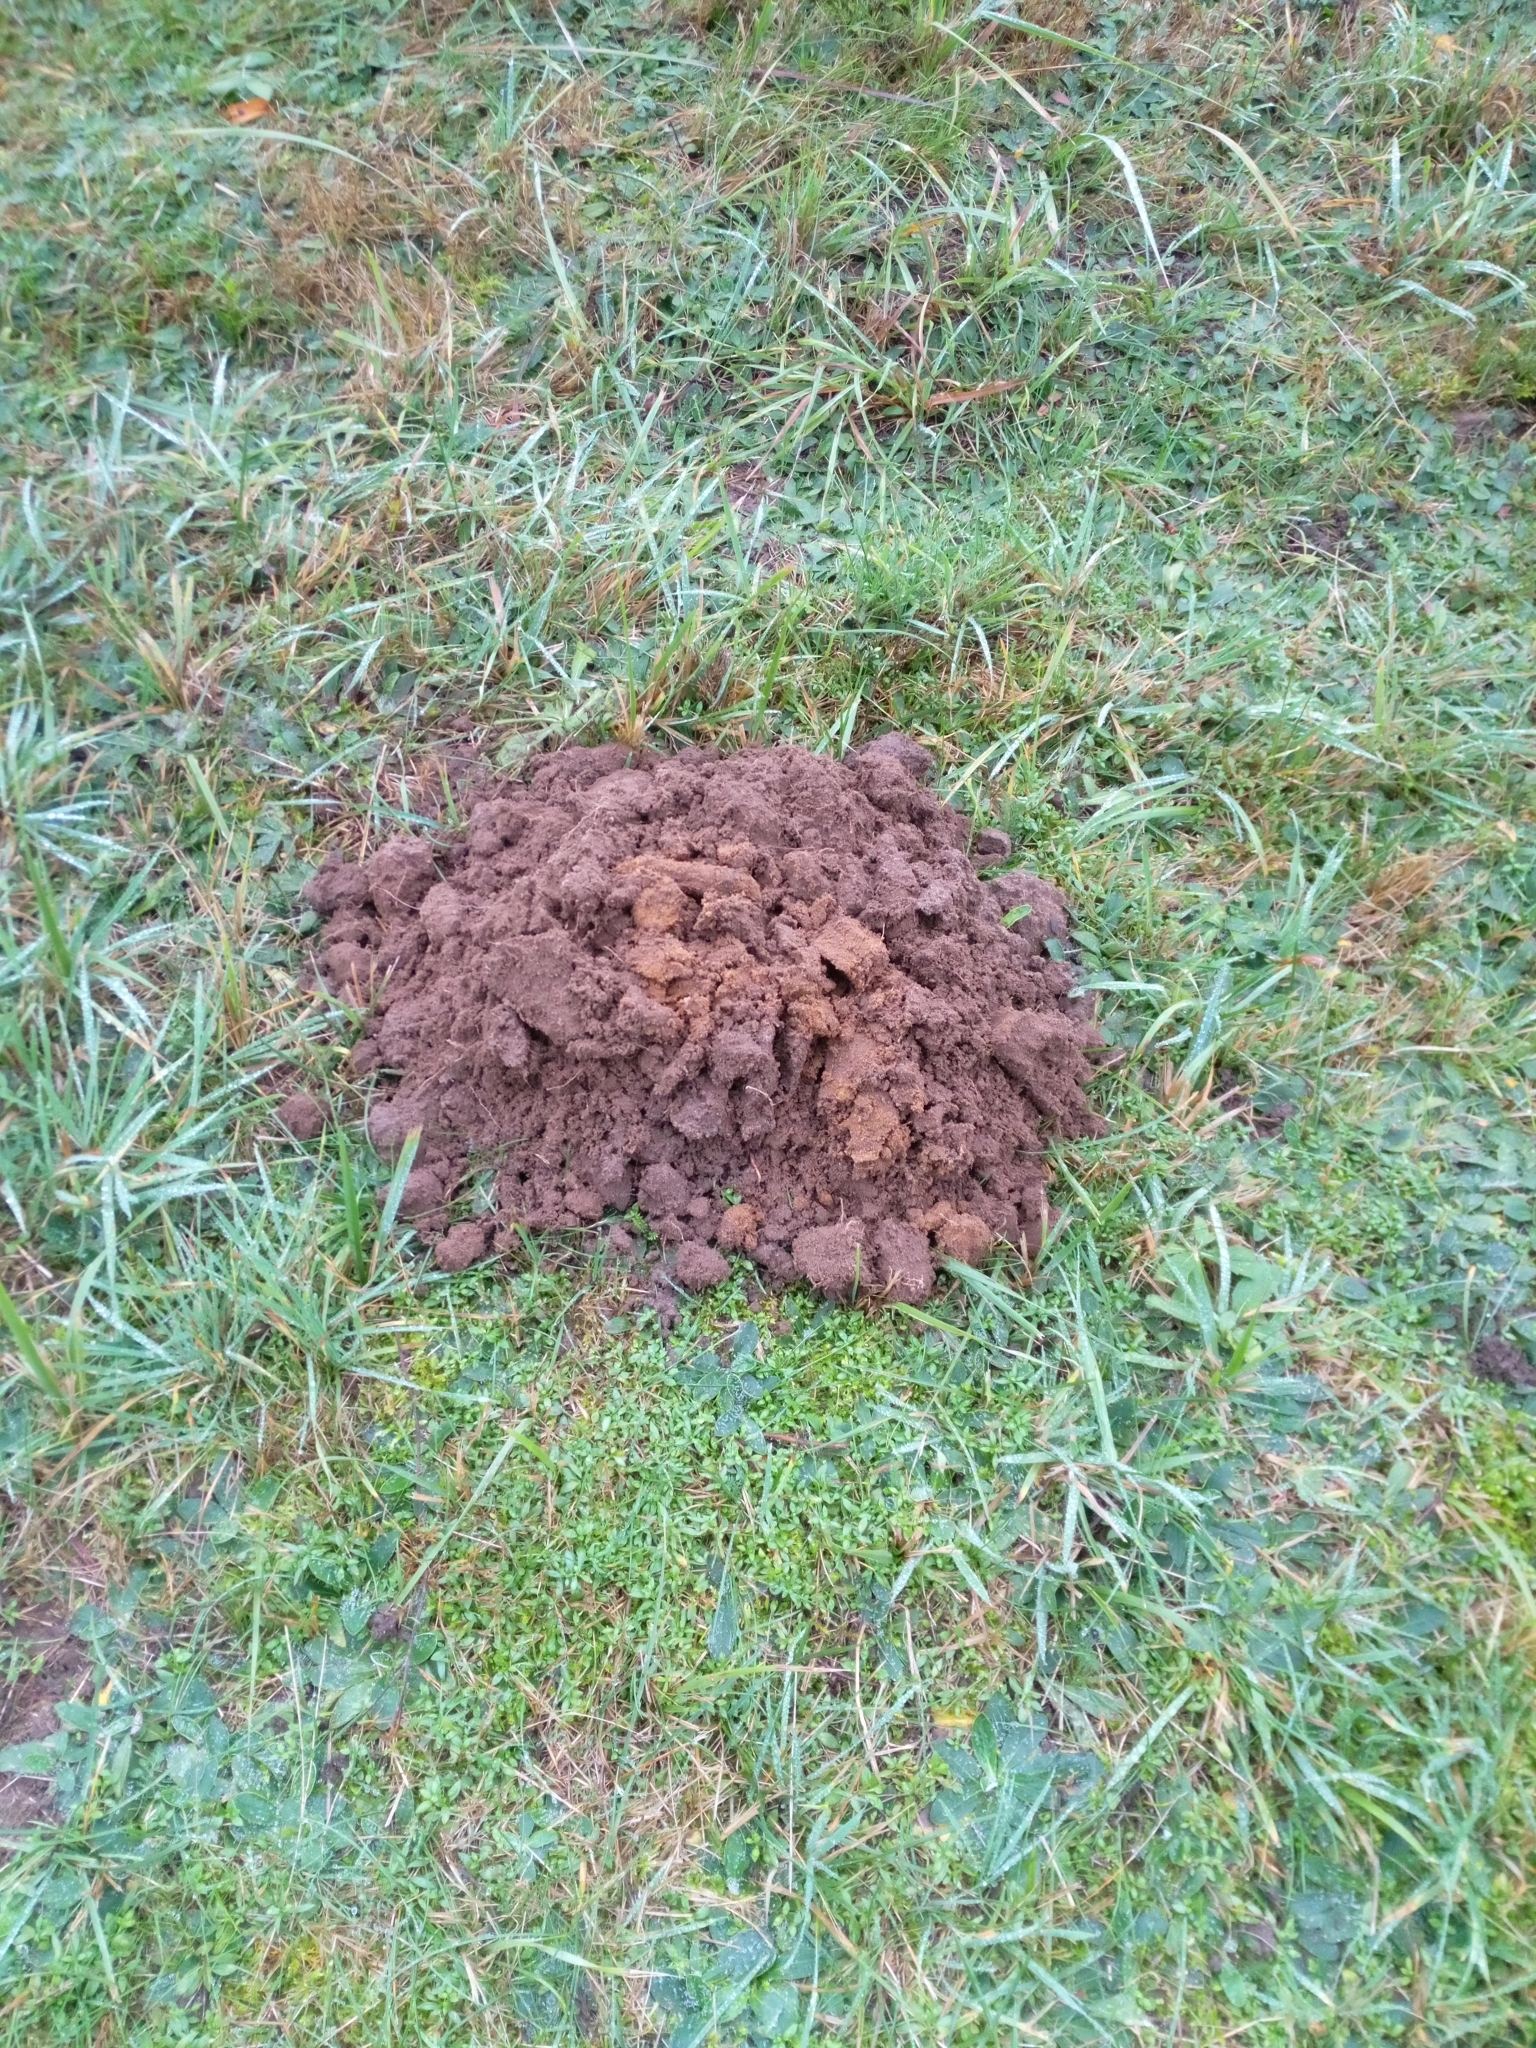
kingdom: Animalia
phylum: Chordata
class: Mammalia
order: Soricomorpha
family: Talpidae
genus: Talpa
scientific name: Talpa europaea
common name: European mole
